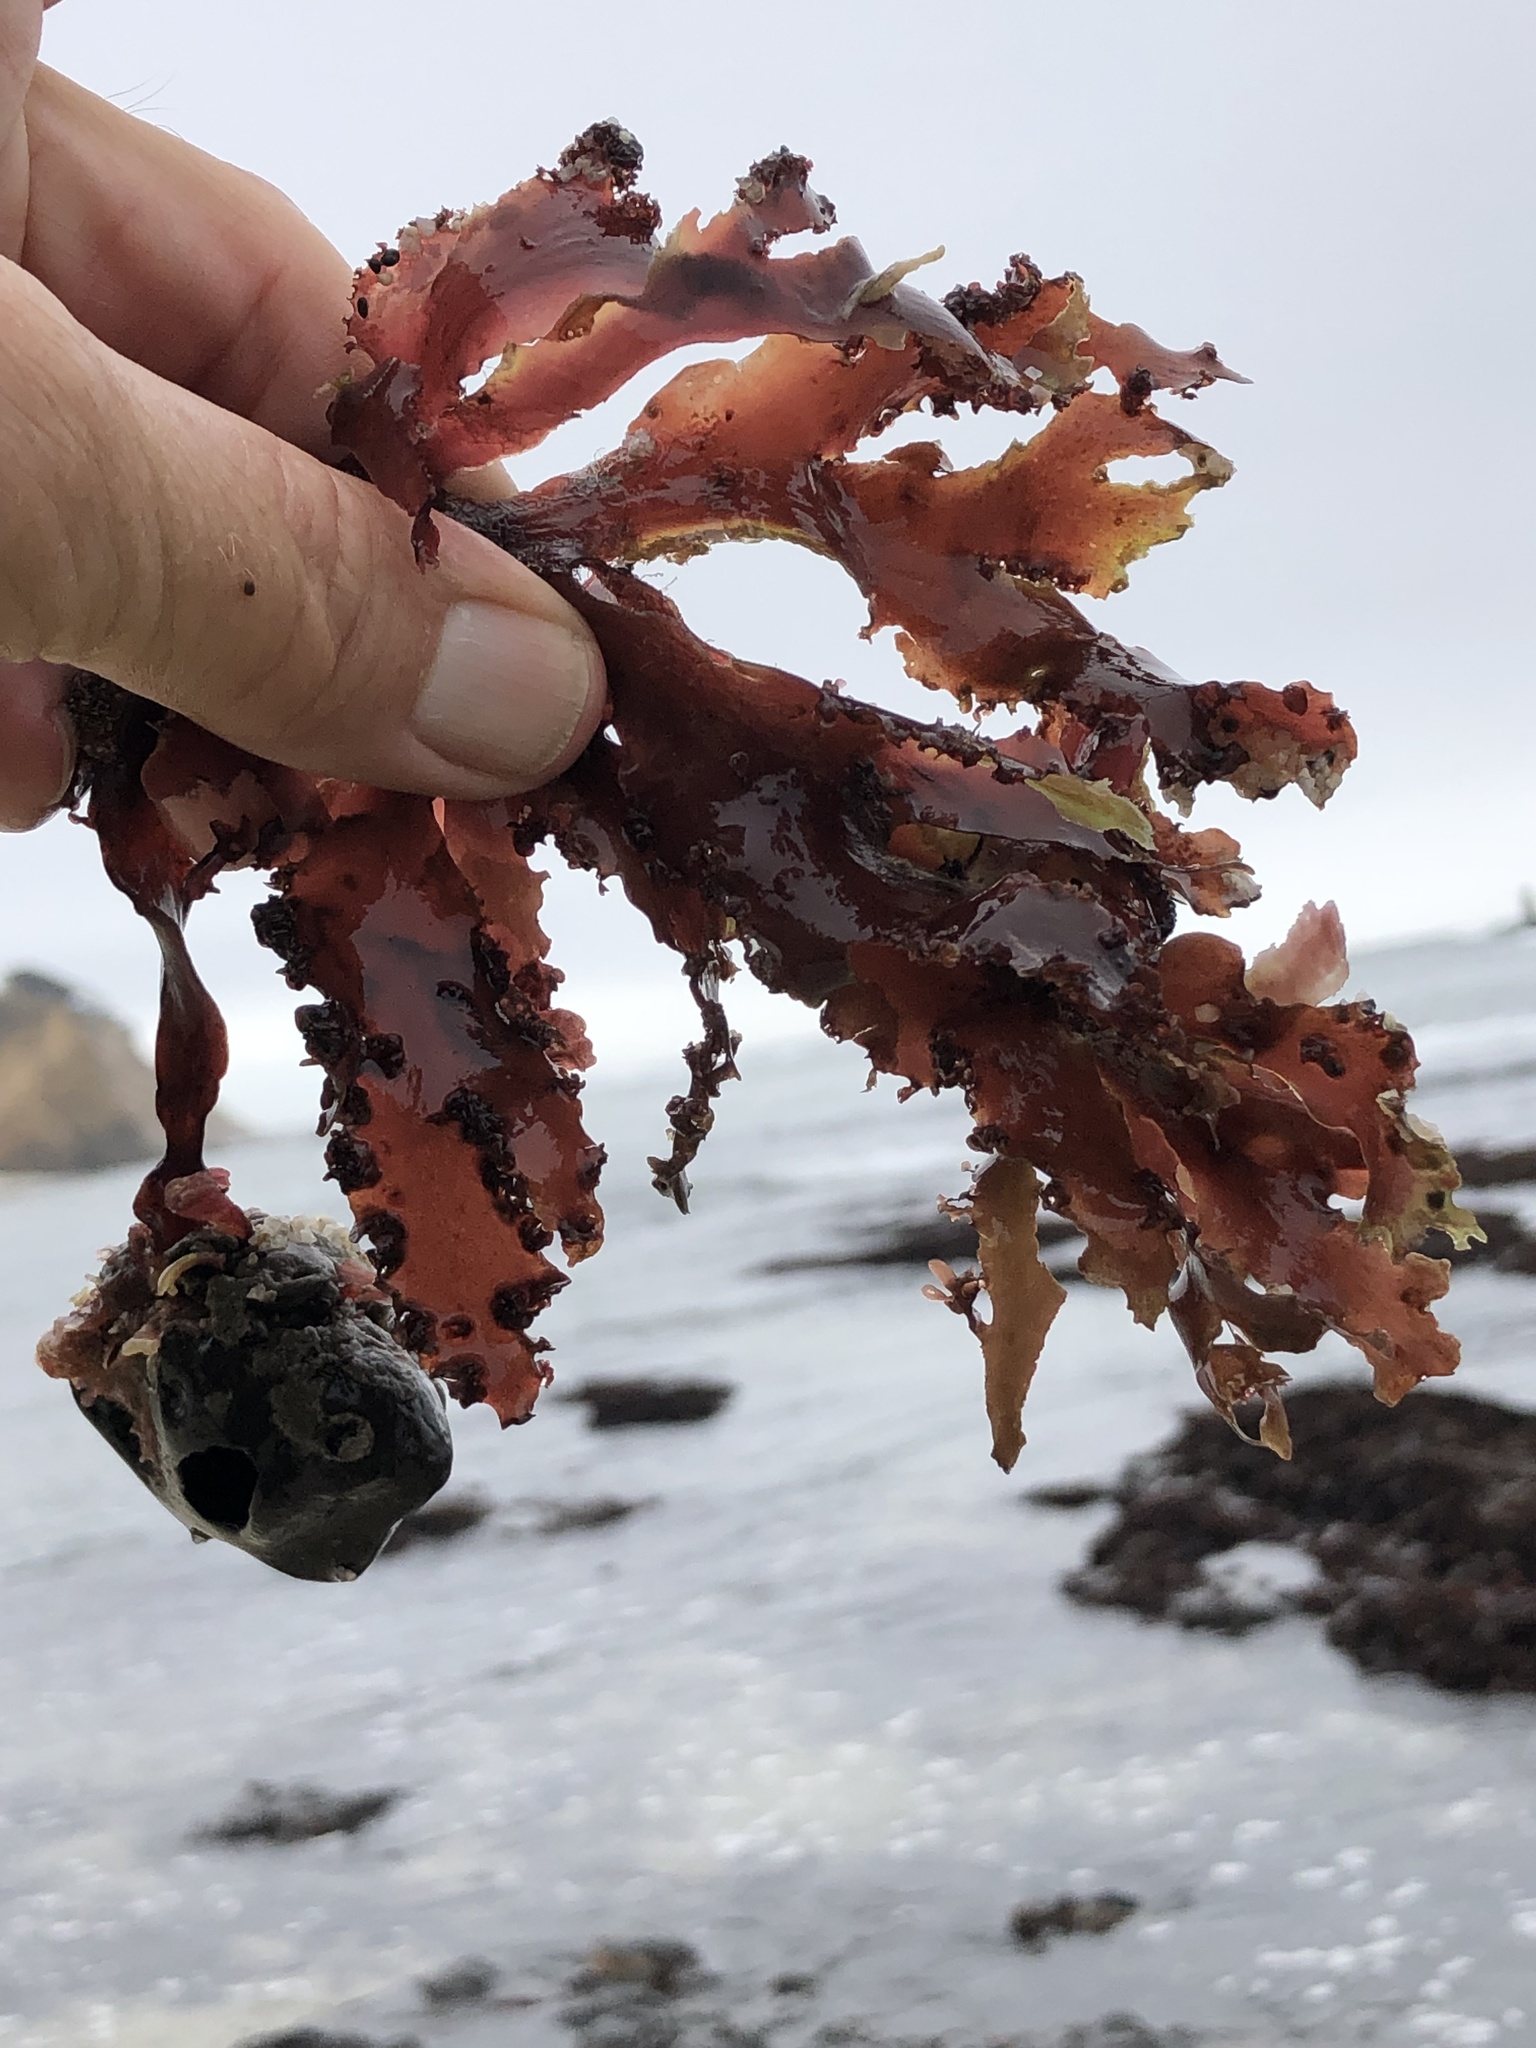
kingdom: Plantae
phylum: Rhodophyta
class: Florideophyceae
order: Ceramiales
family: Delesseriaceae
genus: Cryptopleura
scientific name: Cryptopleura ruprechtiana
